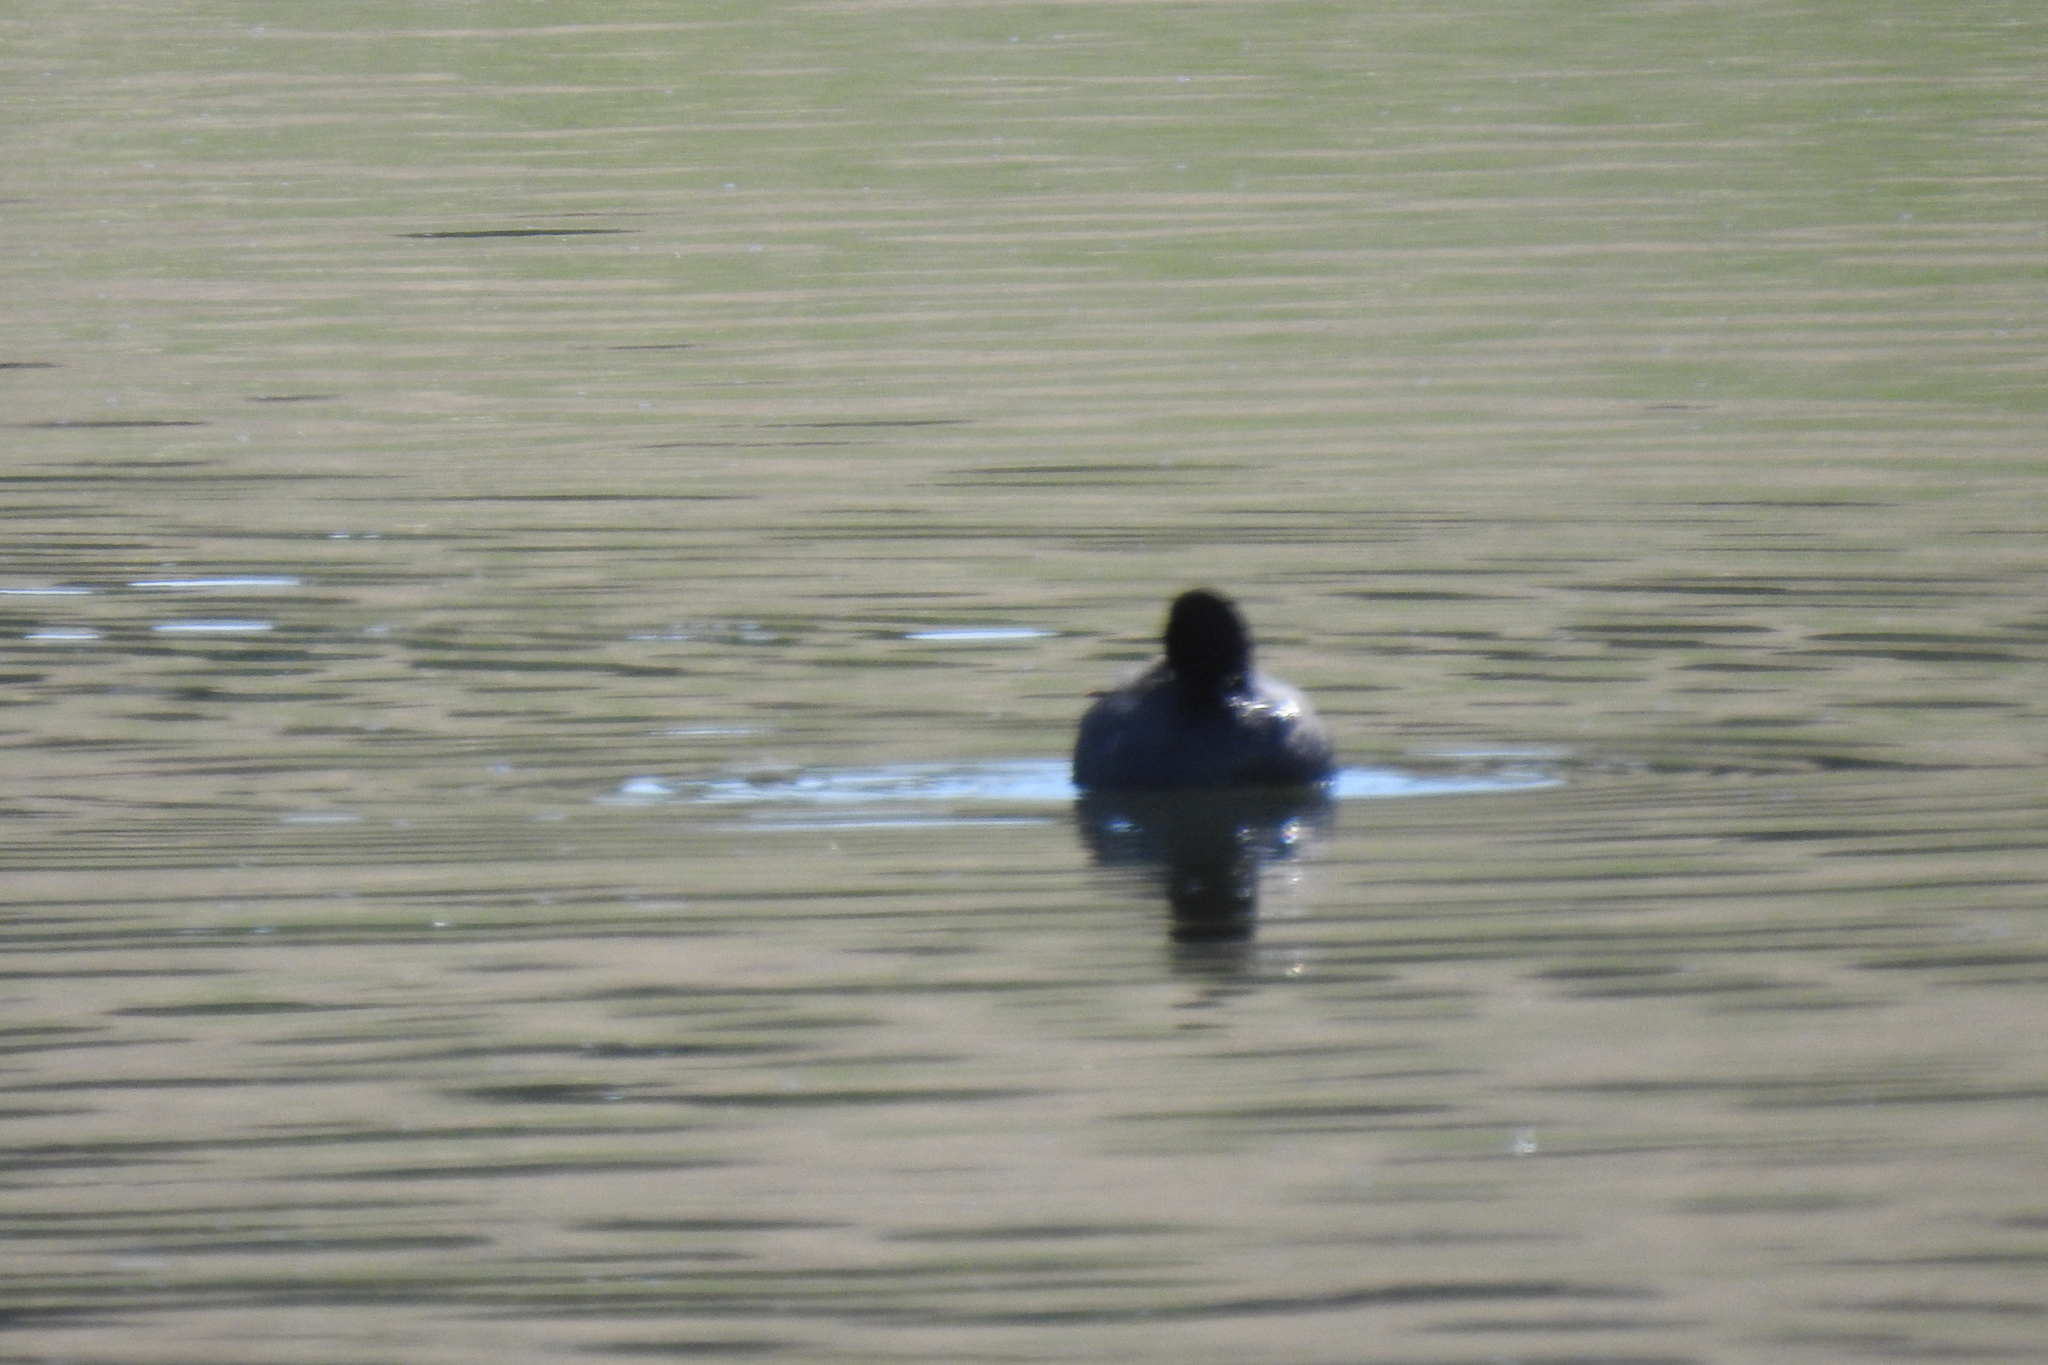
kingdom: Animalia
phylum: Chordata
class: Aves
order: Gruiformes
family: Rallidae
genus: Fulica
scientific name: Fulica americana
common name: American coot
